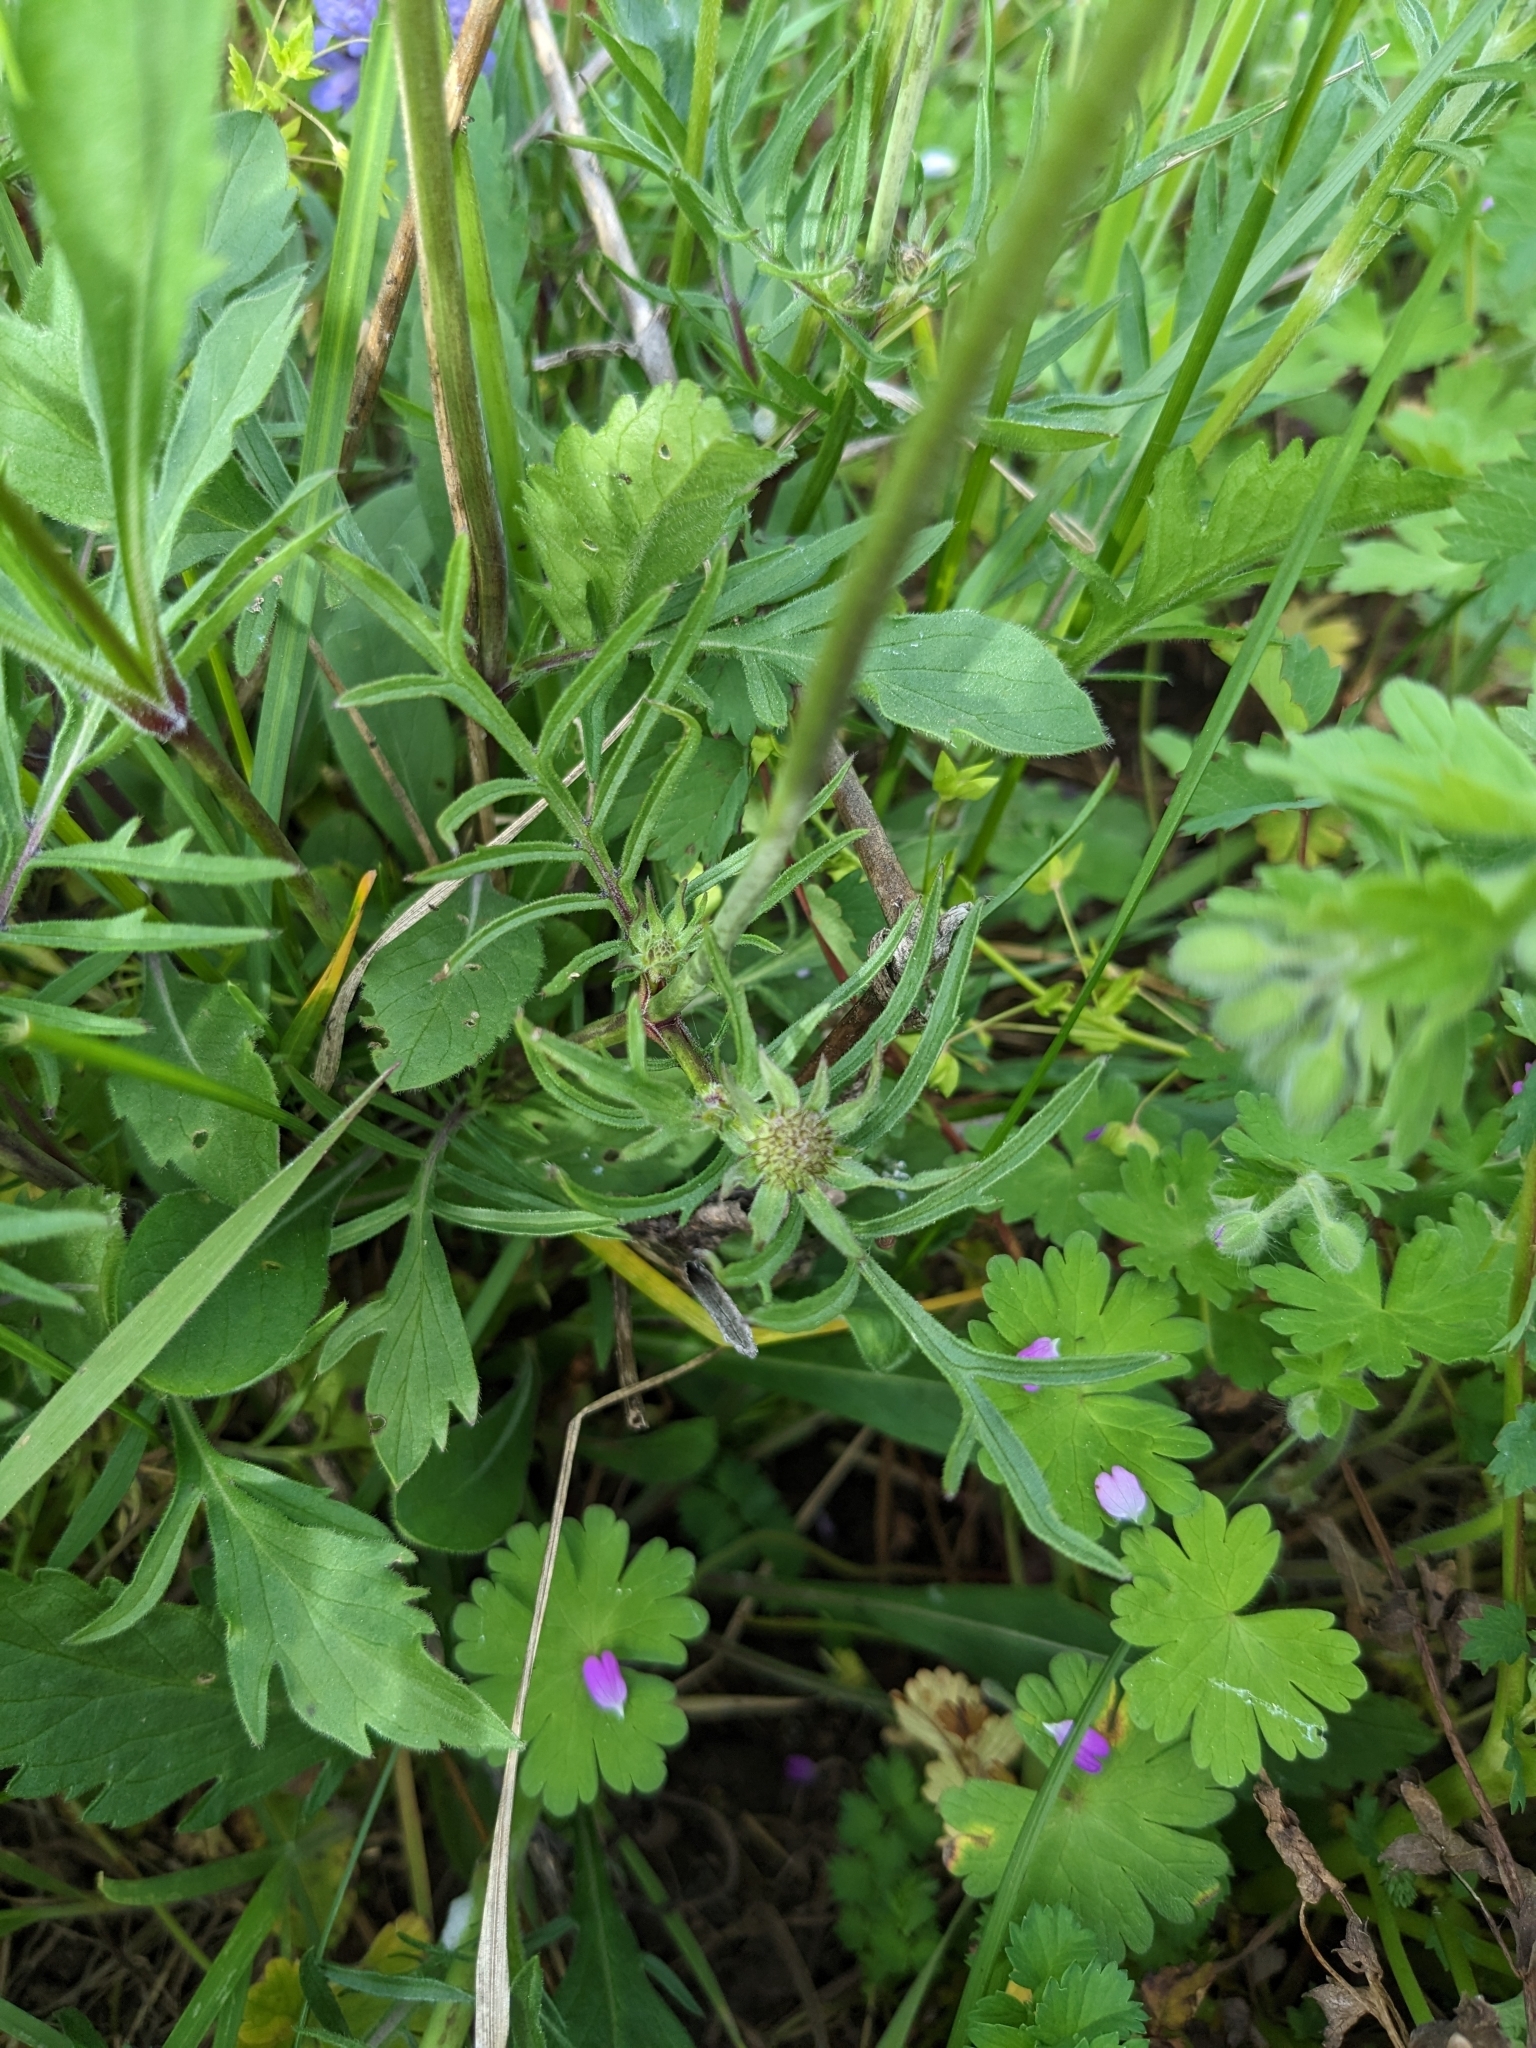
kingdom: Plantae
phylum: Tracheophyta
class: Magnoliopsida
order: Asterales
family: Asteraceae
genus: Centaurea
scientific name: Centaurea cyanus
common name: Cornflower
